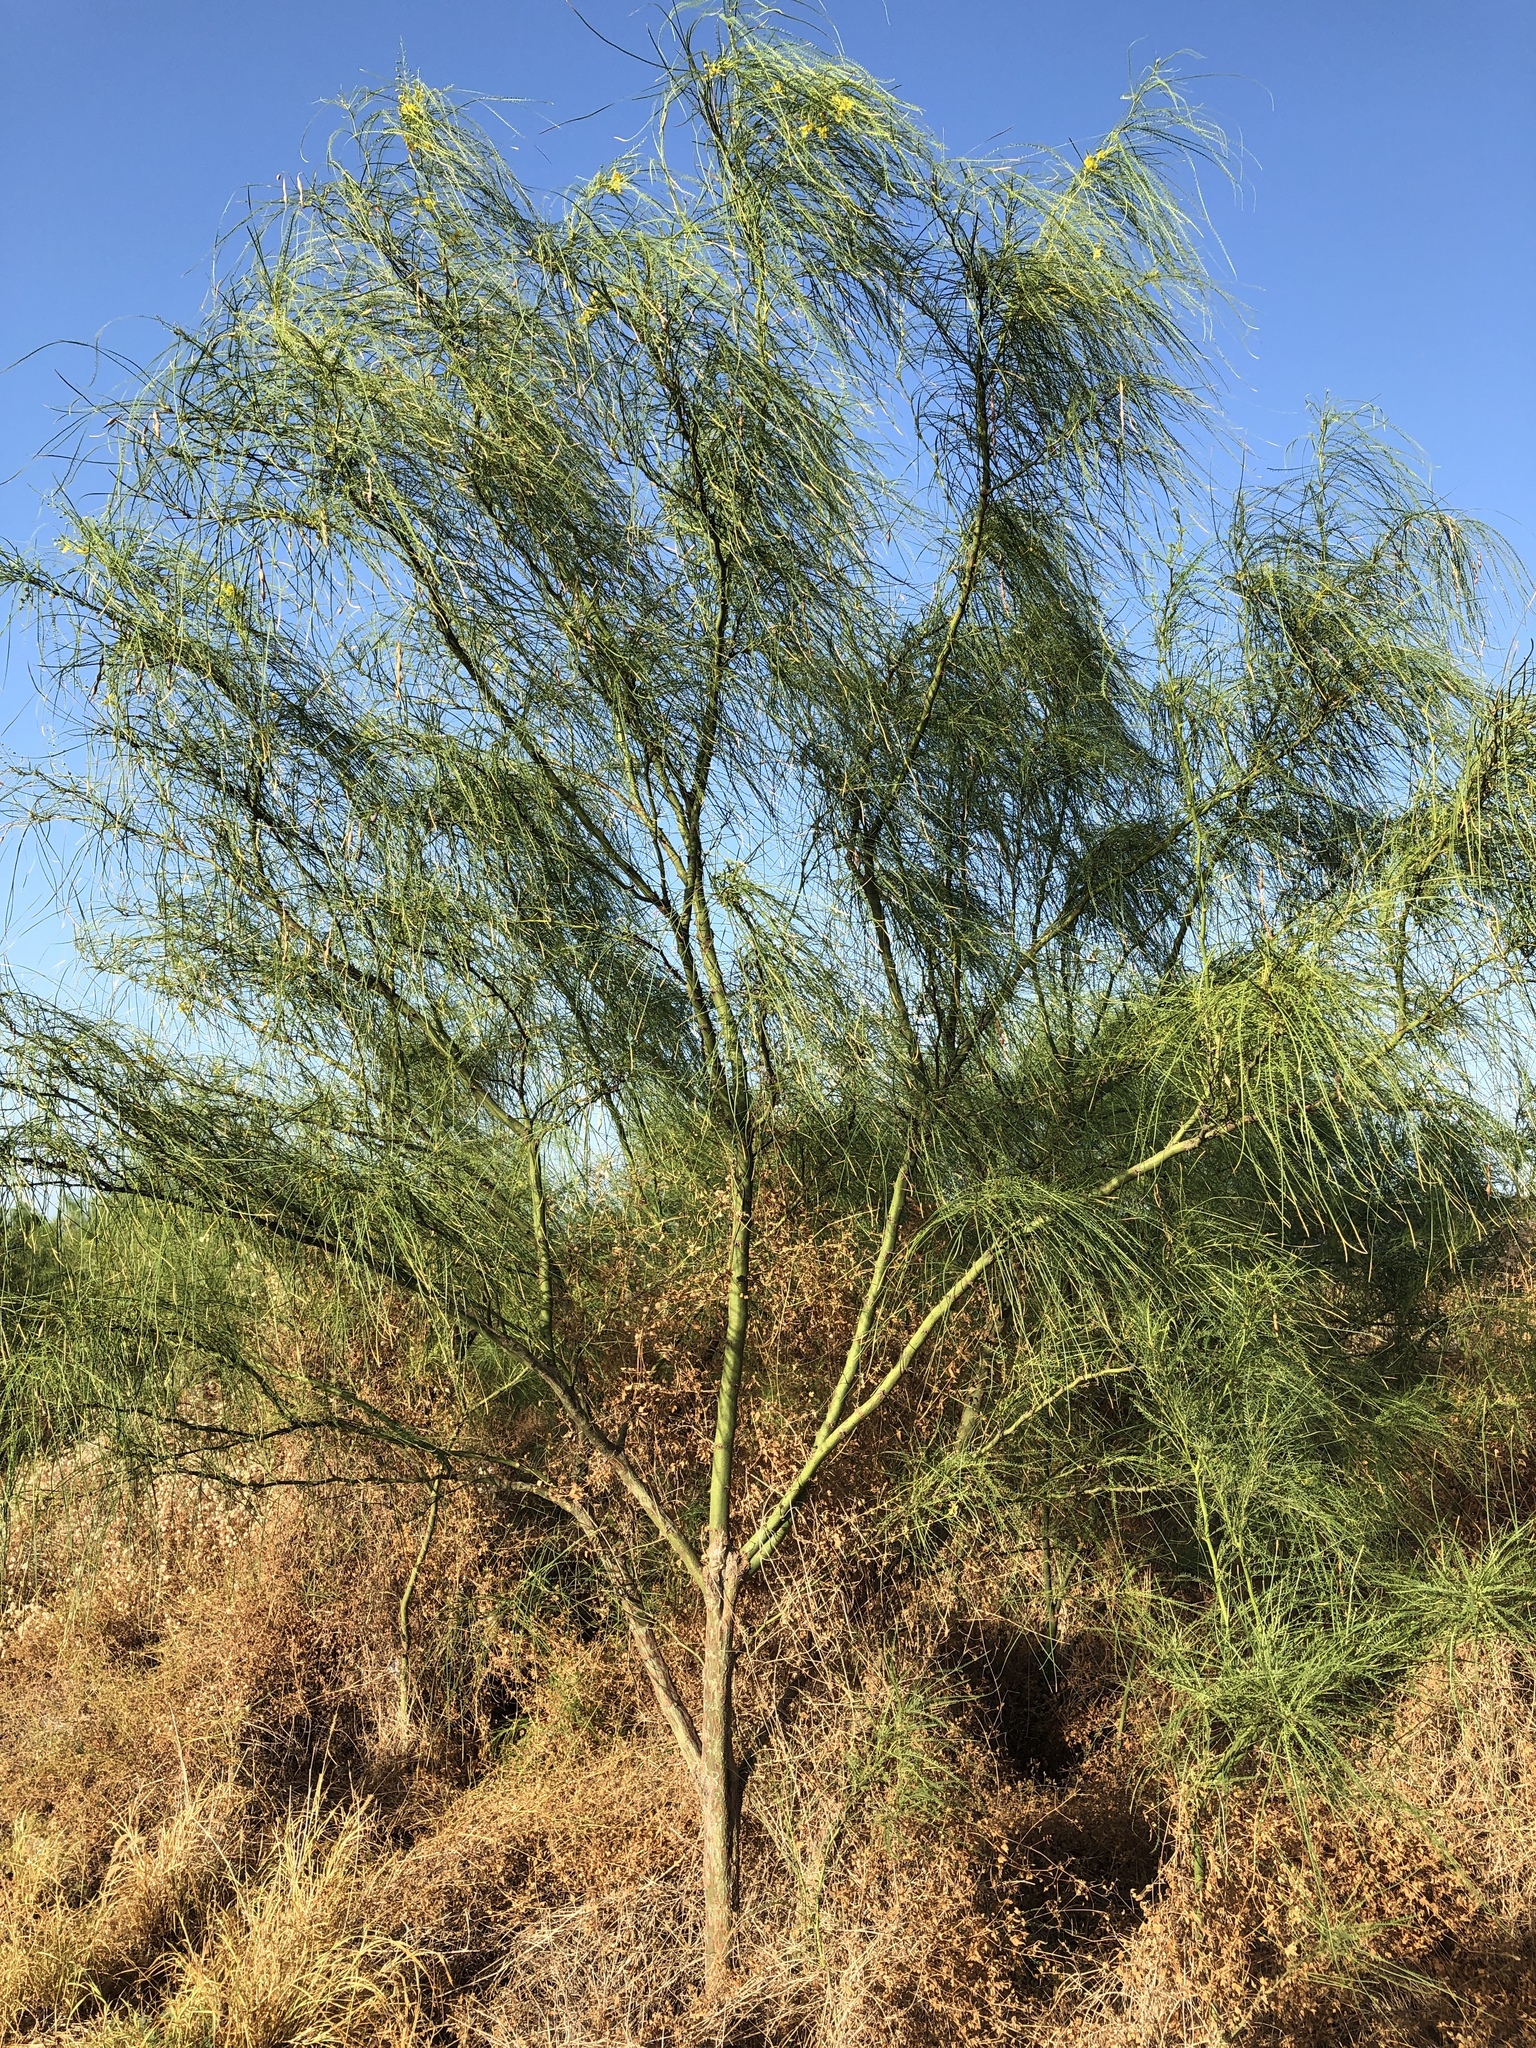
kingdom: Plantae
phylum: Tracheophyta
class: Magnoliopsida
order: Fabales
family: Fabaceae
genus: Parkinsonia
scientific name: Parkinsonia aculeata
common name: Jerusalem thorn
